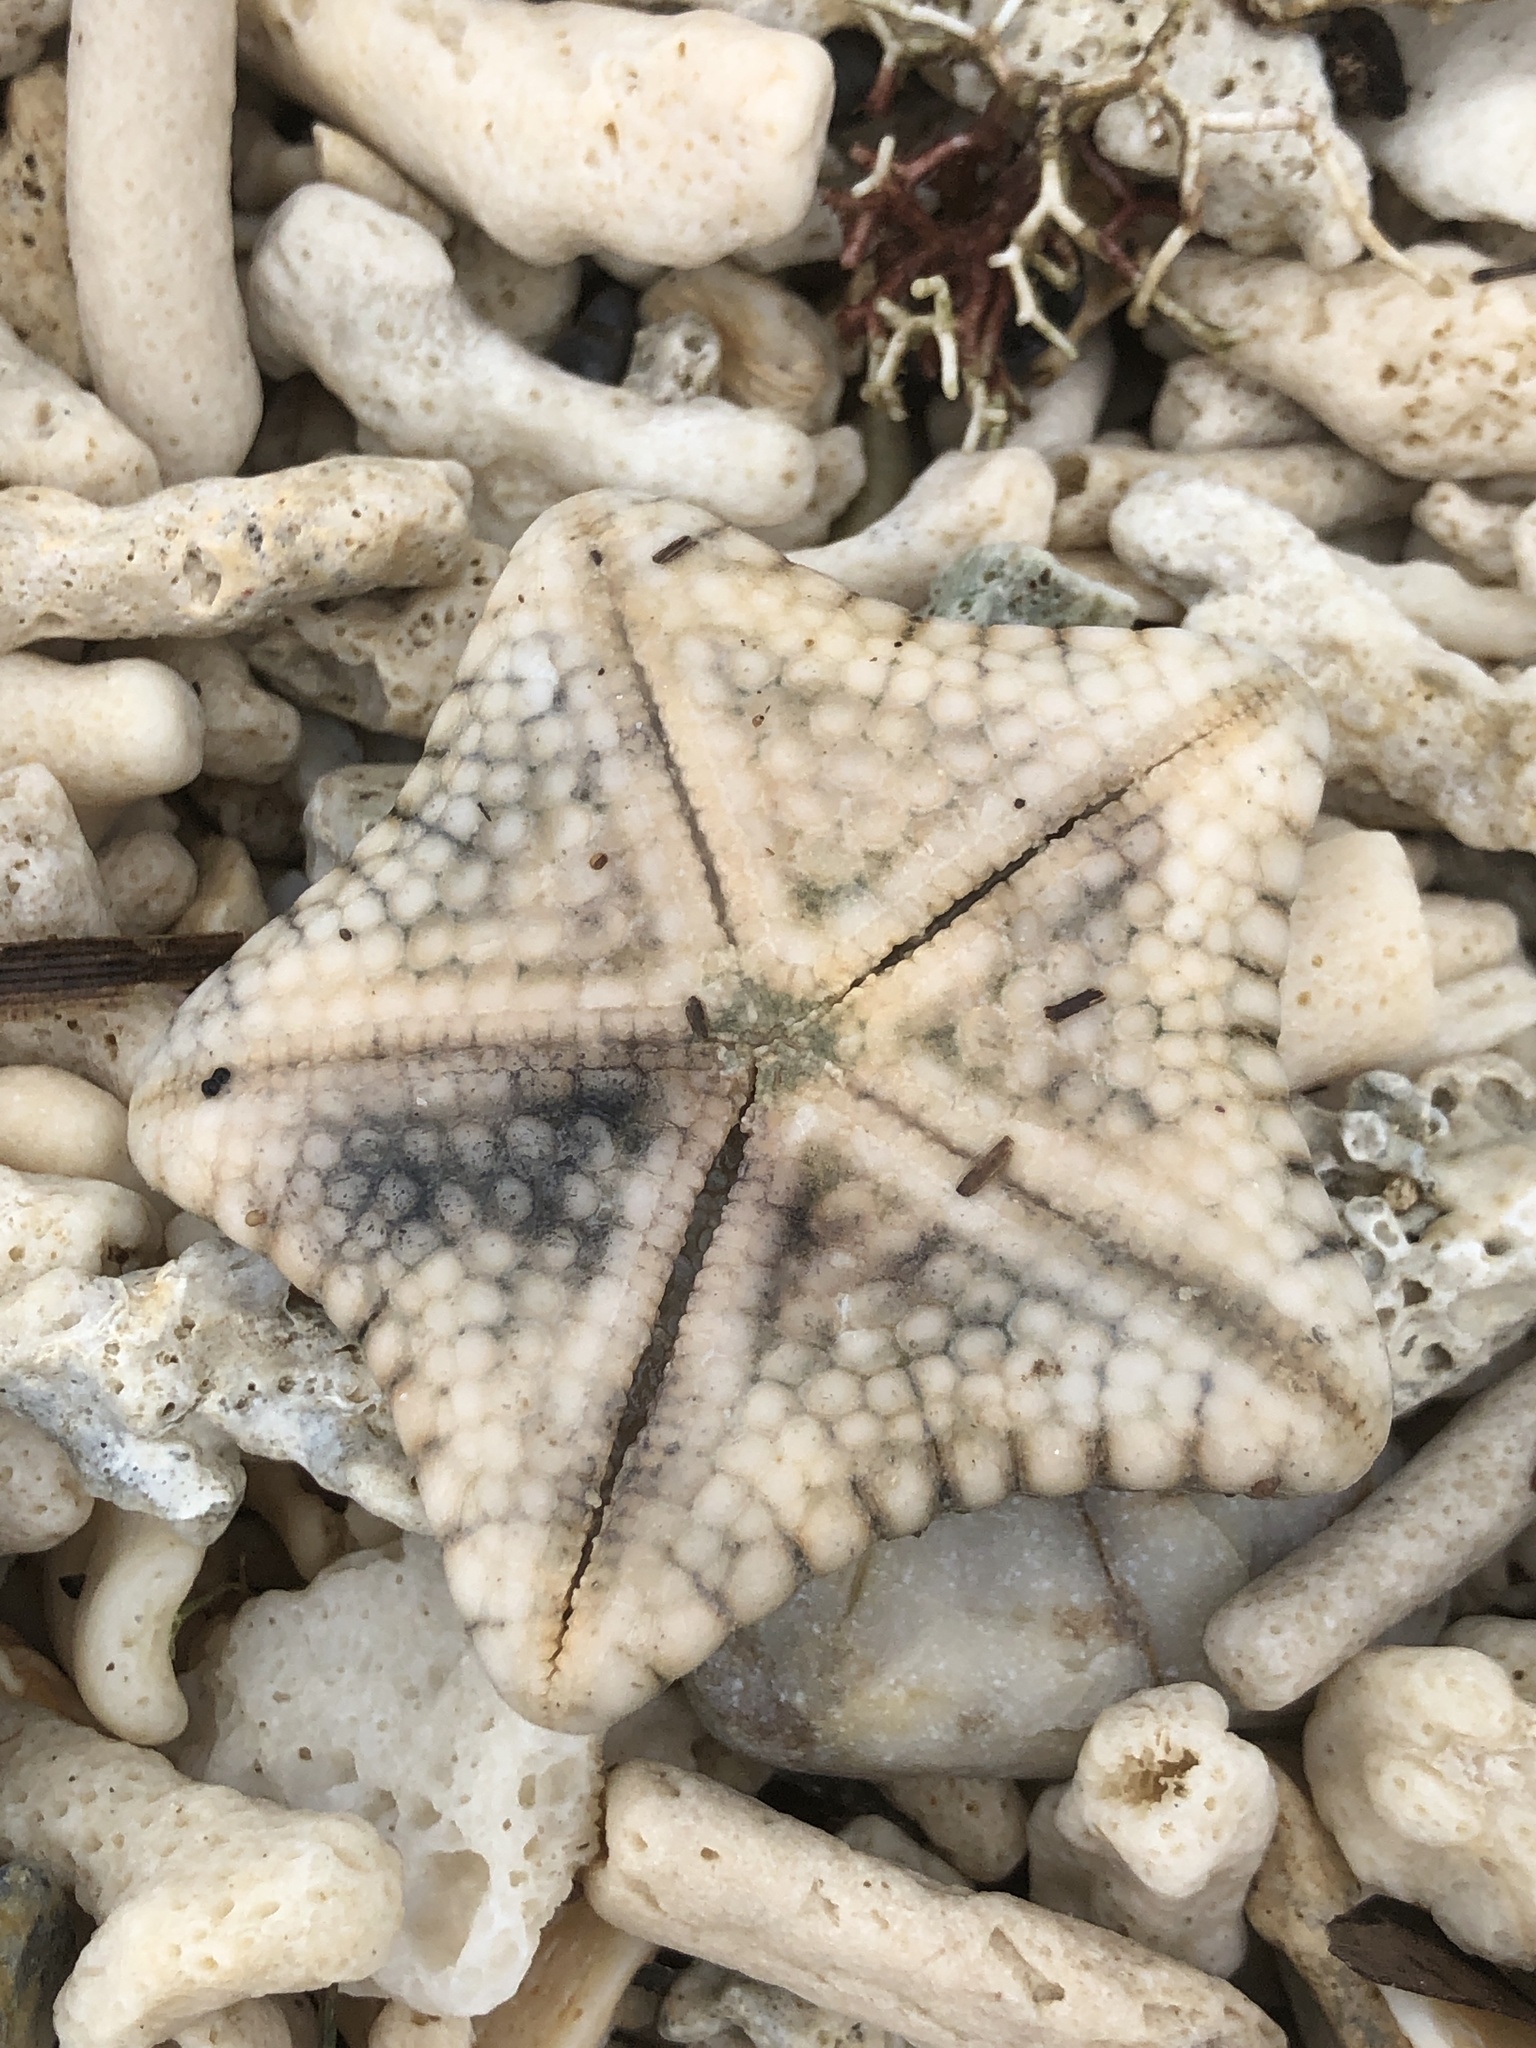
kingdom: Animalia
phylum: Echinodermata
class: Asteroidea
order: Valvatida
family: Oreasteridae
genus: Culcita
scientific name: Culcita novaeguineae
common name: Cushion star
